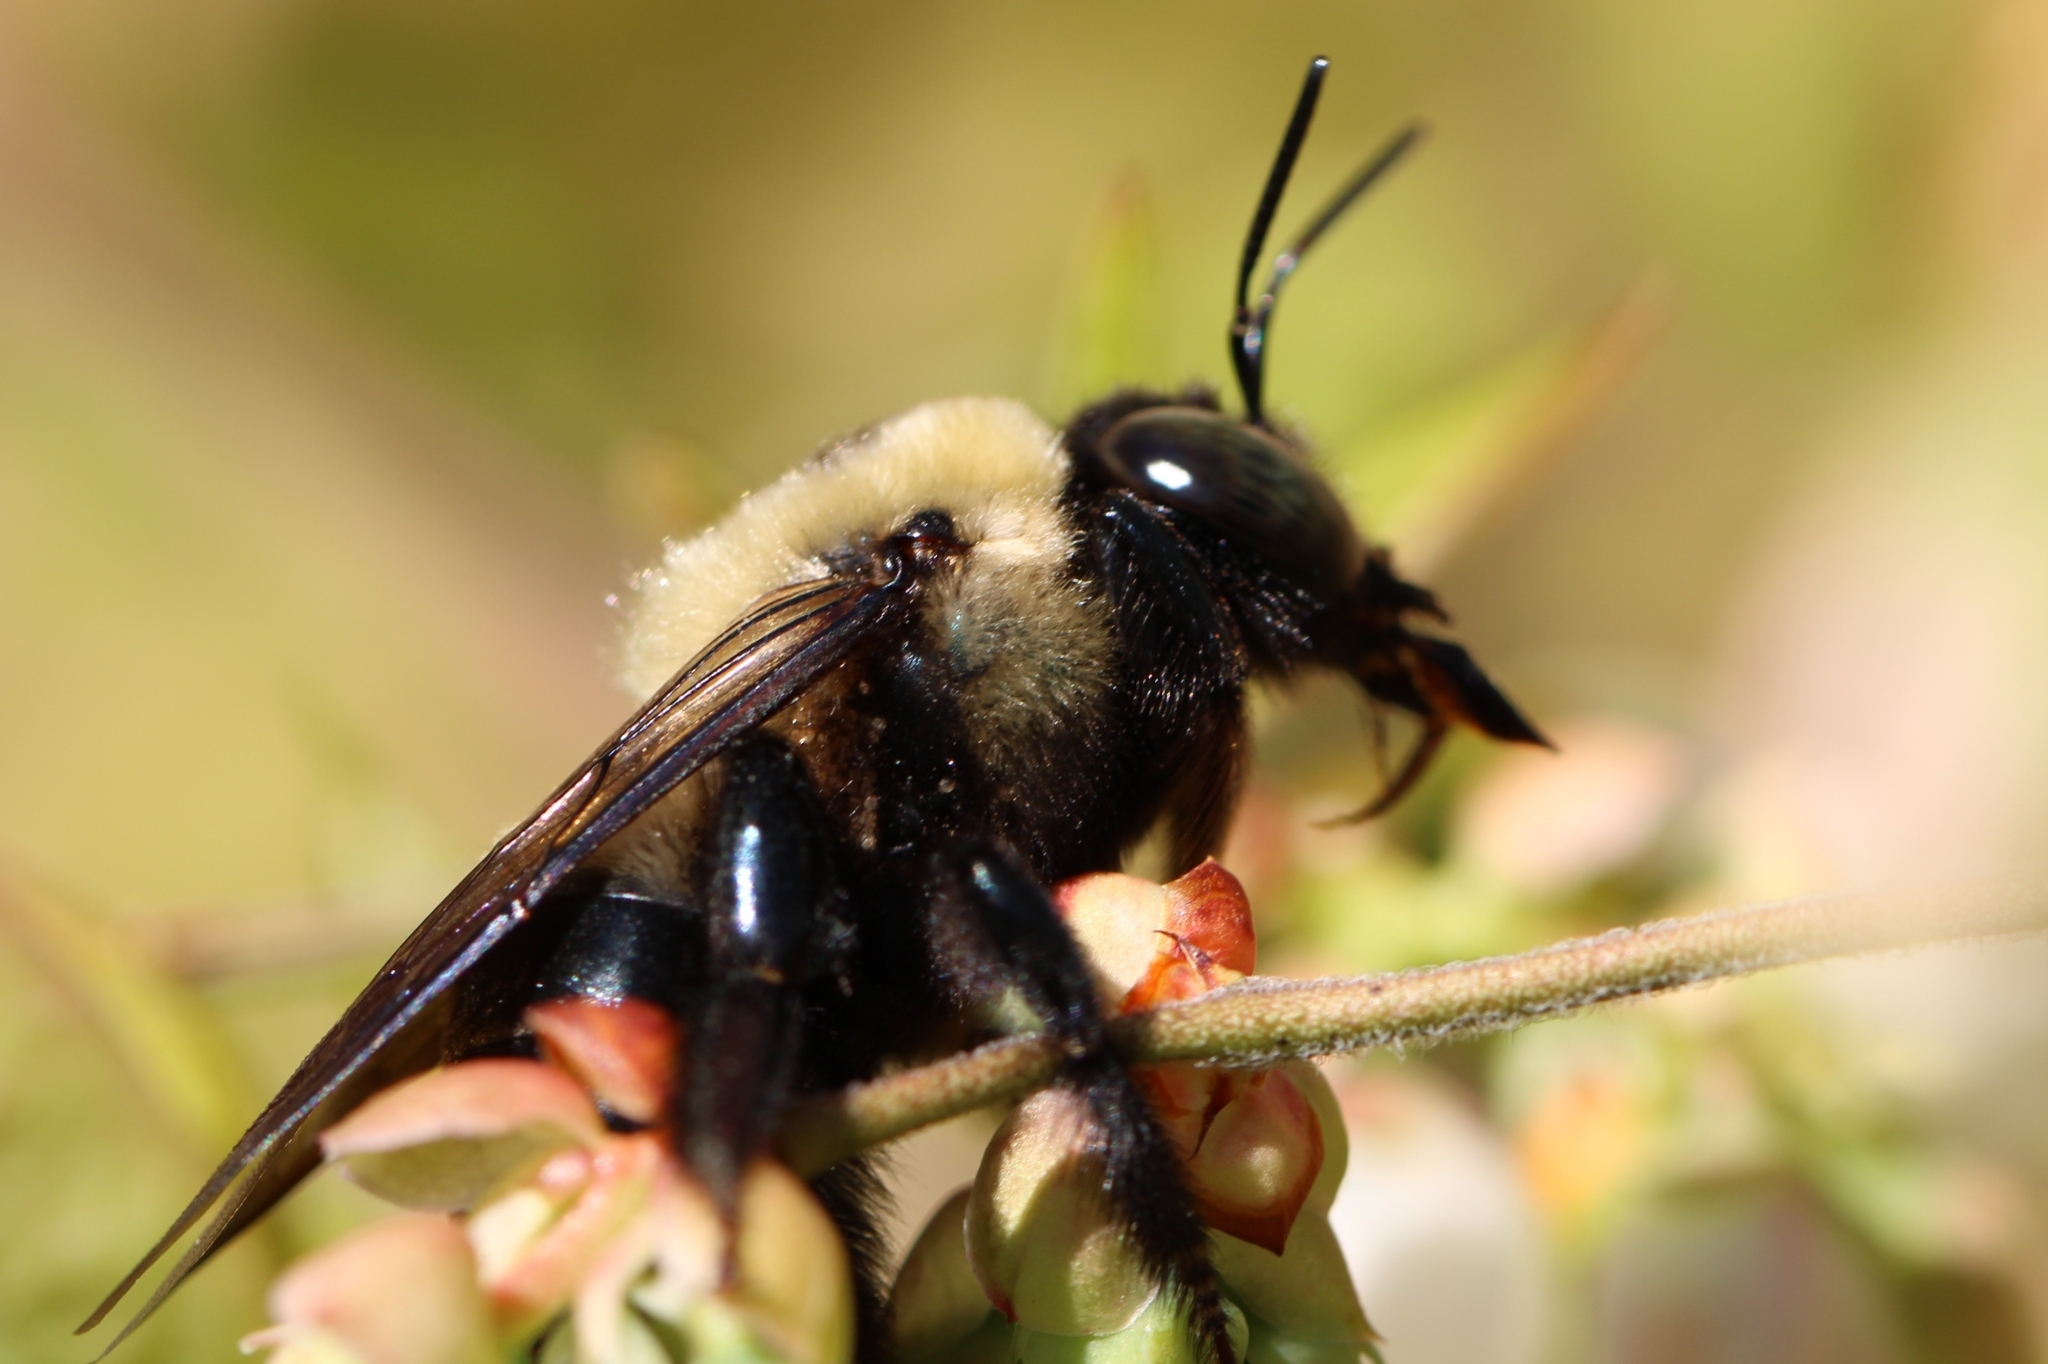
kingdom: Animalia
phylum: Arthropoda
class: Insecta
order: Hymenoptera
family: Apidae
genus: Xylocopa
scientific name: Xylocopa virginica
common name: Carpenter bee
